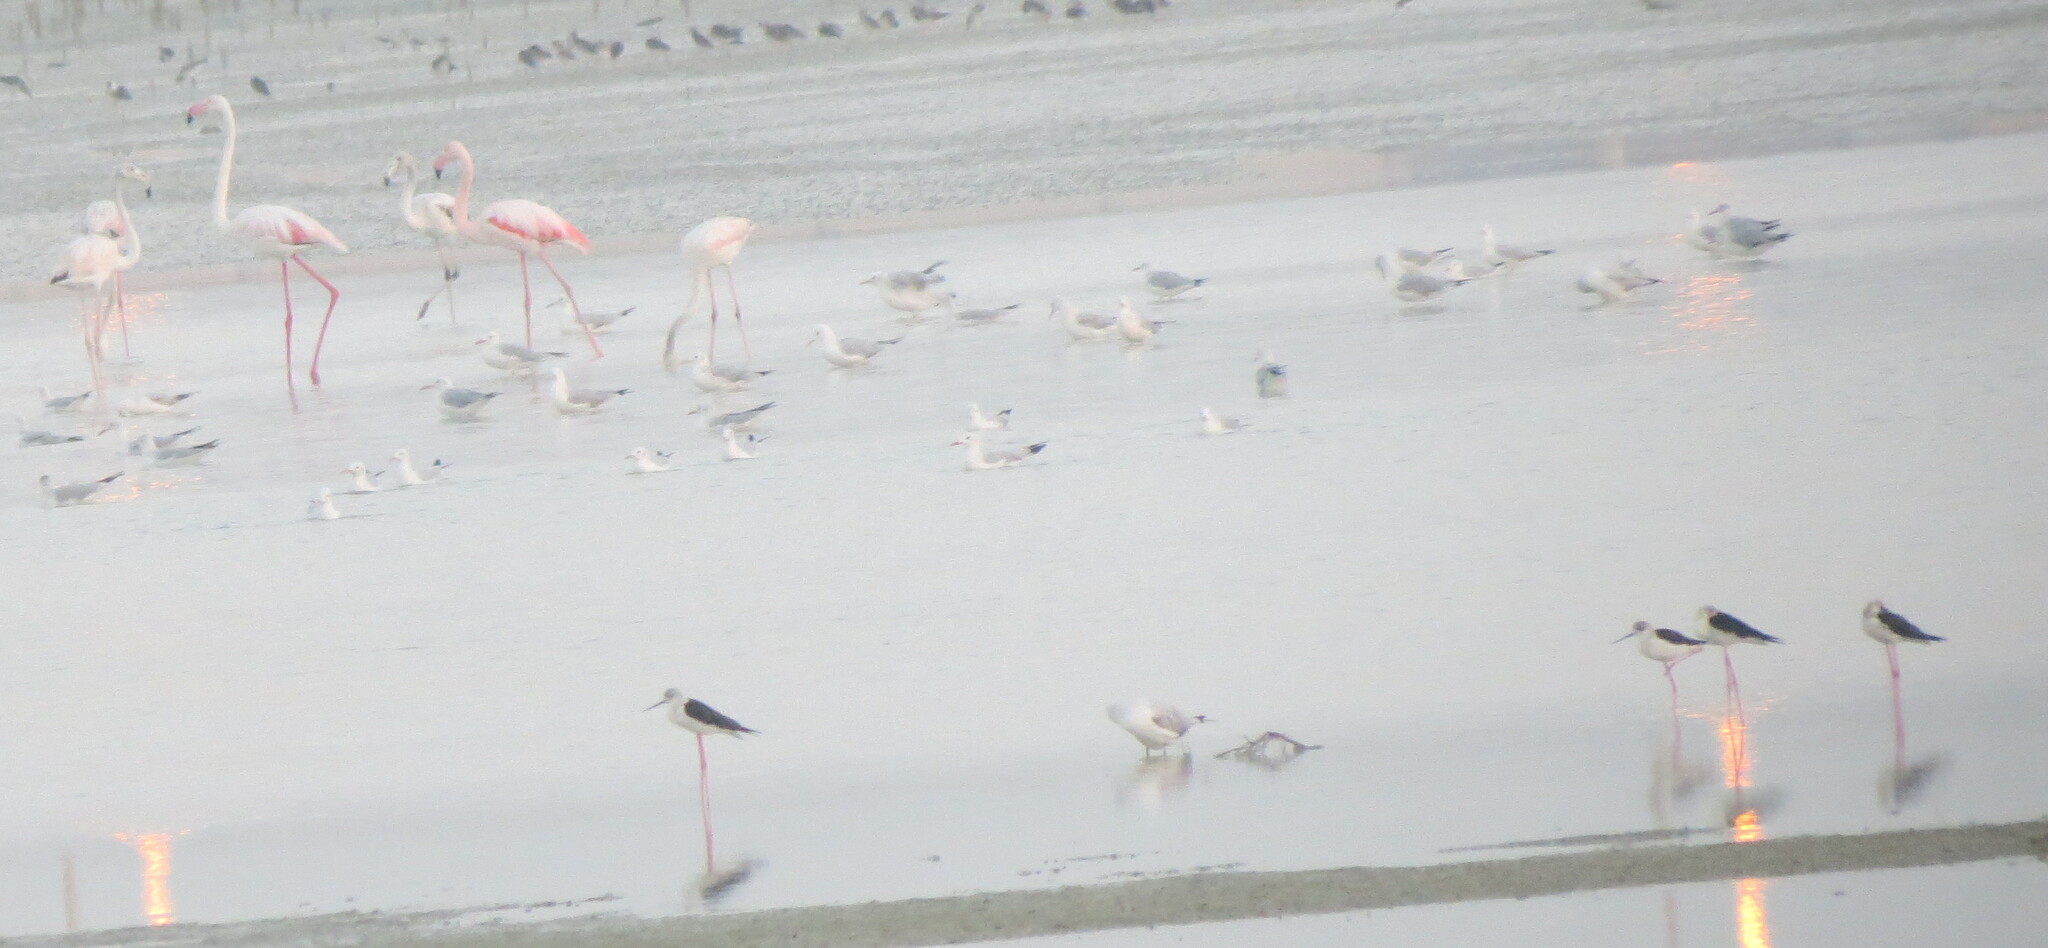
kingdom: Animalia
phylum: Chordata
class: Aves
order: Charadriiformes
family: Recurvirostridae
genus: Himantopus
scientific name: Himantopus himantopus
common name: Black-winged stilt
